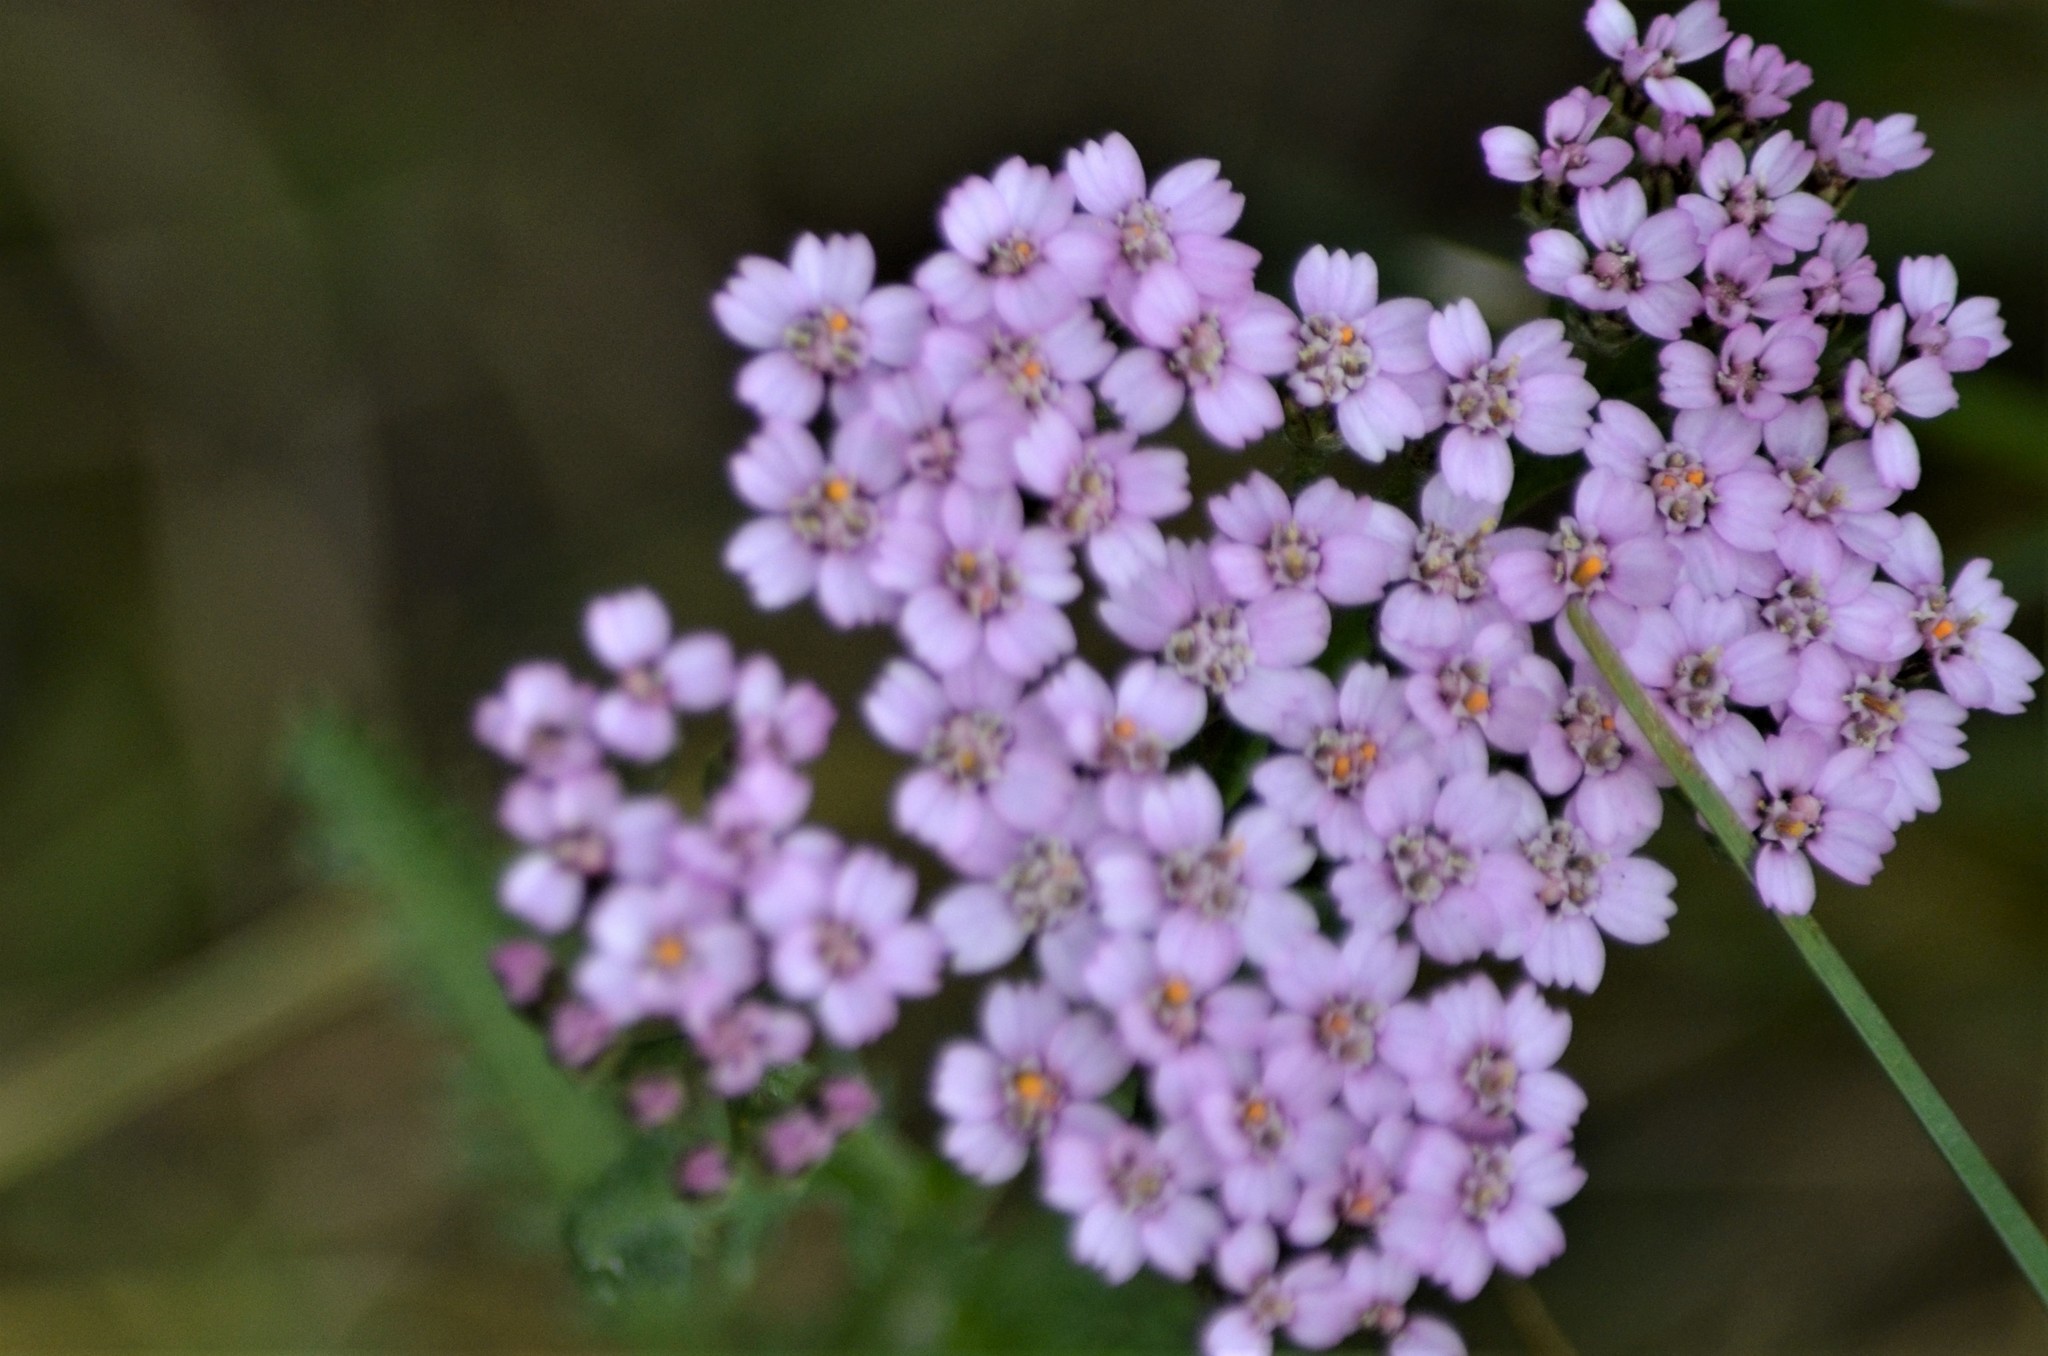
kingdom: Plantae
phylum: Tracheophyta
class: Magnoliopsida
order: Asterales
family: Asteraceae
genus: Achillea
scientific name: Achillea millefolium
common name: Yarrow
